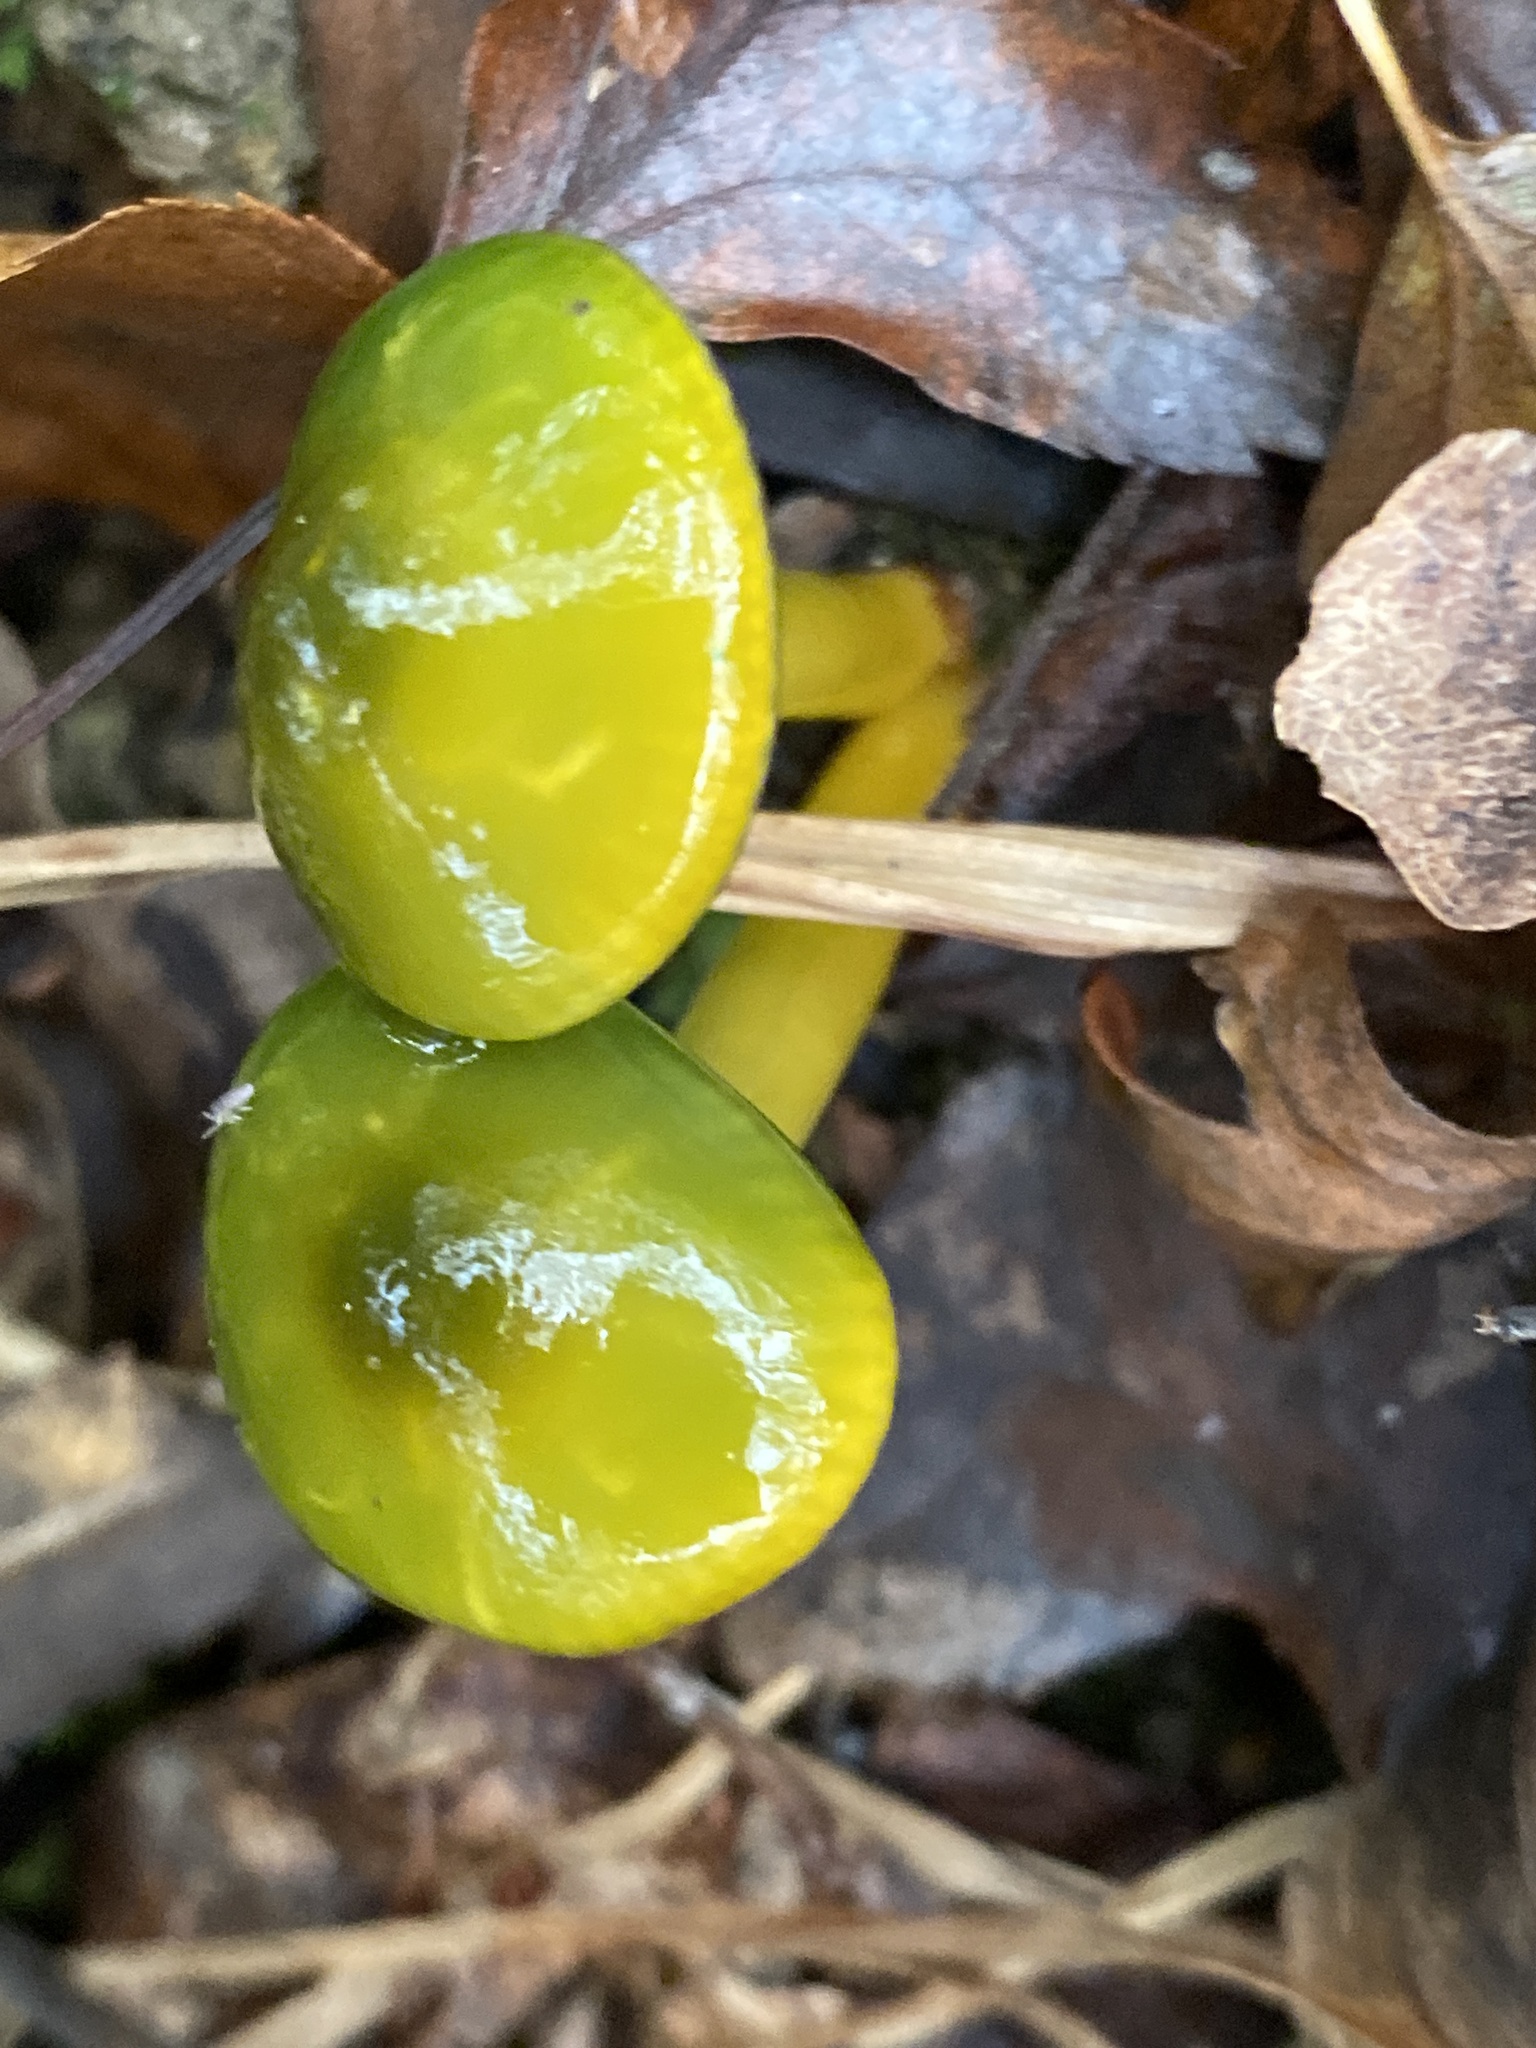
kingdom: Fungi
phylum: Basidiomycota
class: Agaricomycetes
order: Agaricales
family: Hygrophoraceae
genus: Gliophorus
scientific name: Gliophorus psittacinus
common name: Parrot wax-cap
